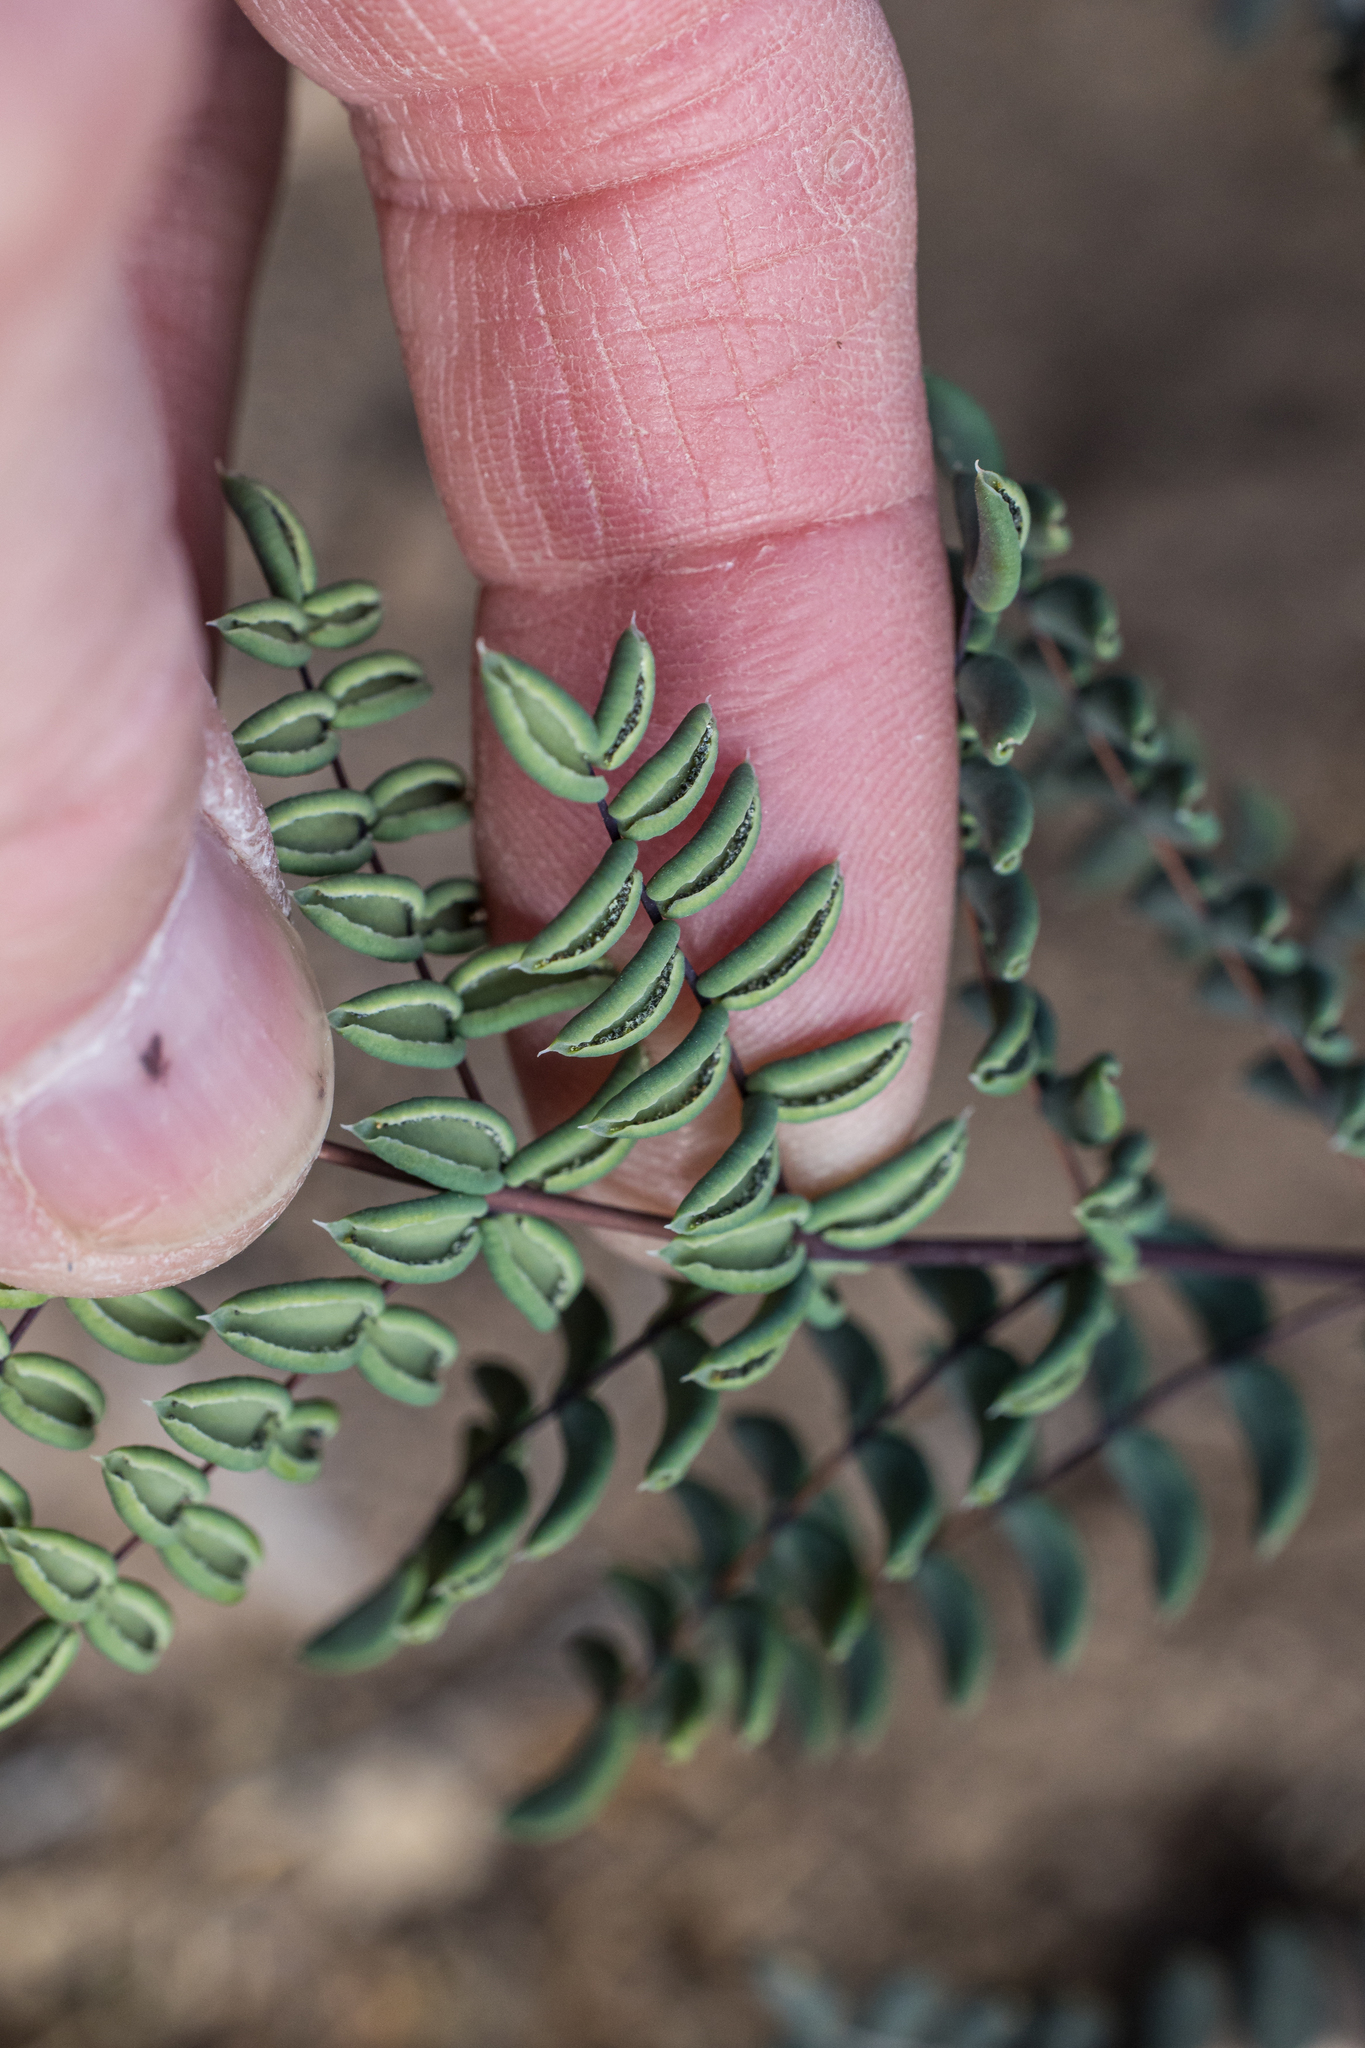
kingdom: Plantae
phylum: Tracheophyta
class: Polypodiopsida
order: Polypodiales
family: Pteridaceae
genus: Pellaea
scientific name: Pellaea truncata
